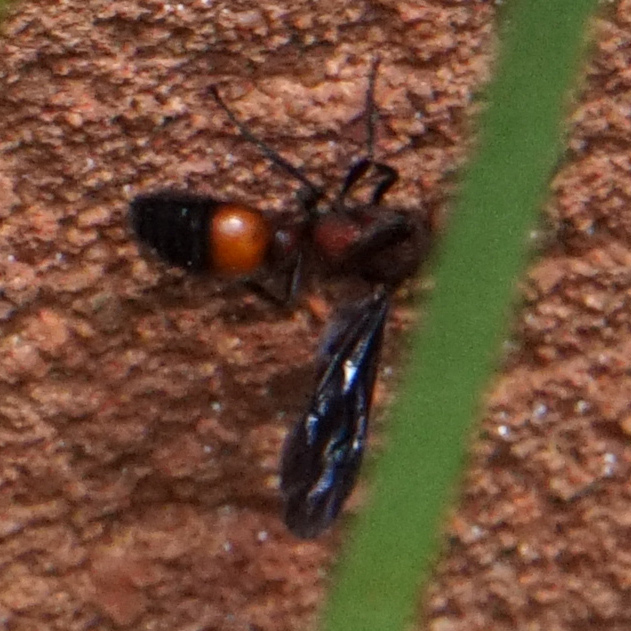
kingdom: Animalia
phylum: Arthropoda
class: Insecta
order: Hymenoptera
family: Mutillidae
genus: Sphaeropthalma
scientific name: Sphaeropthalma
